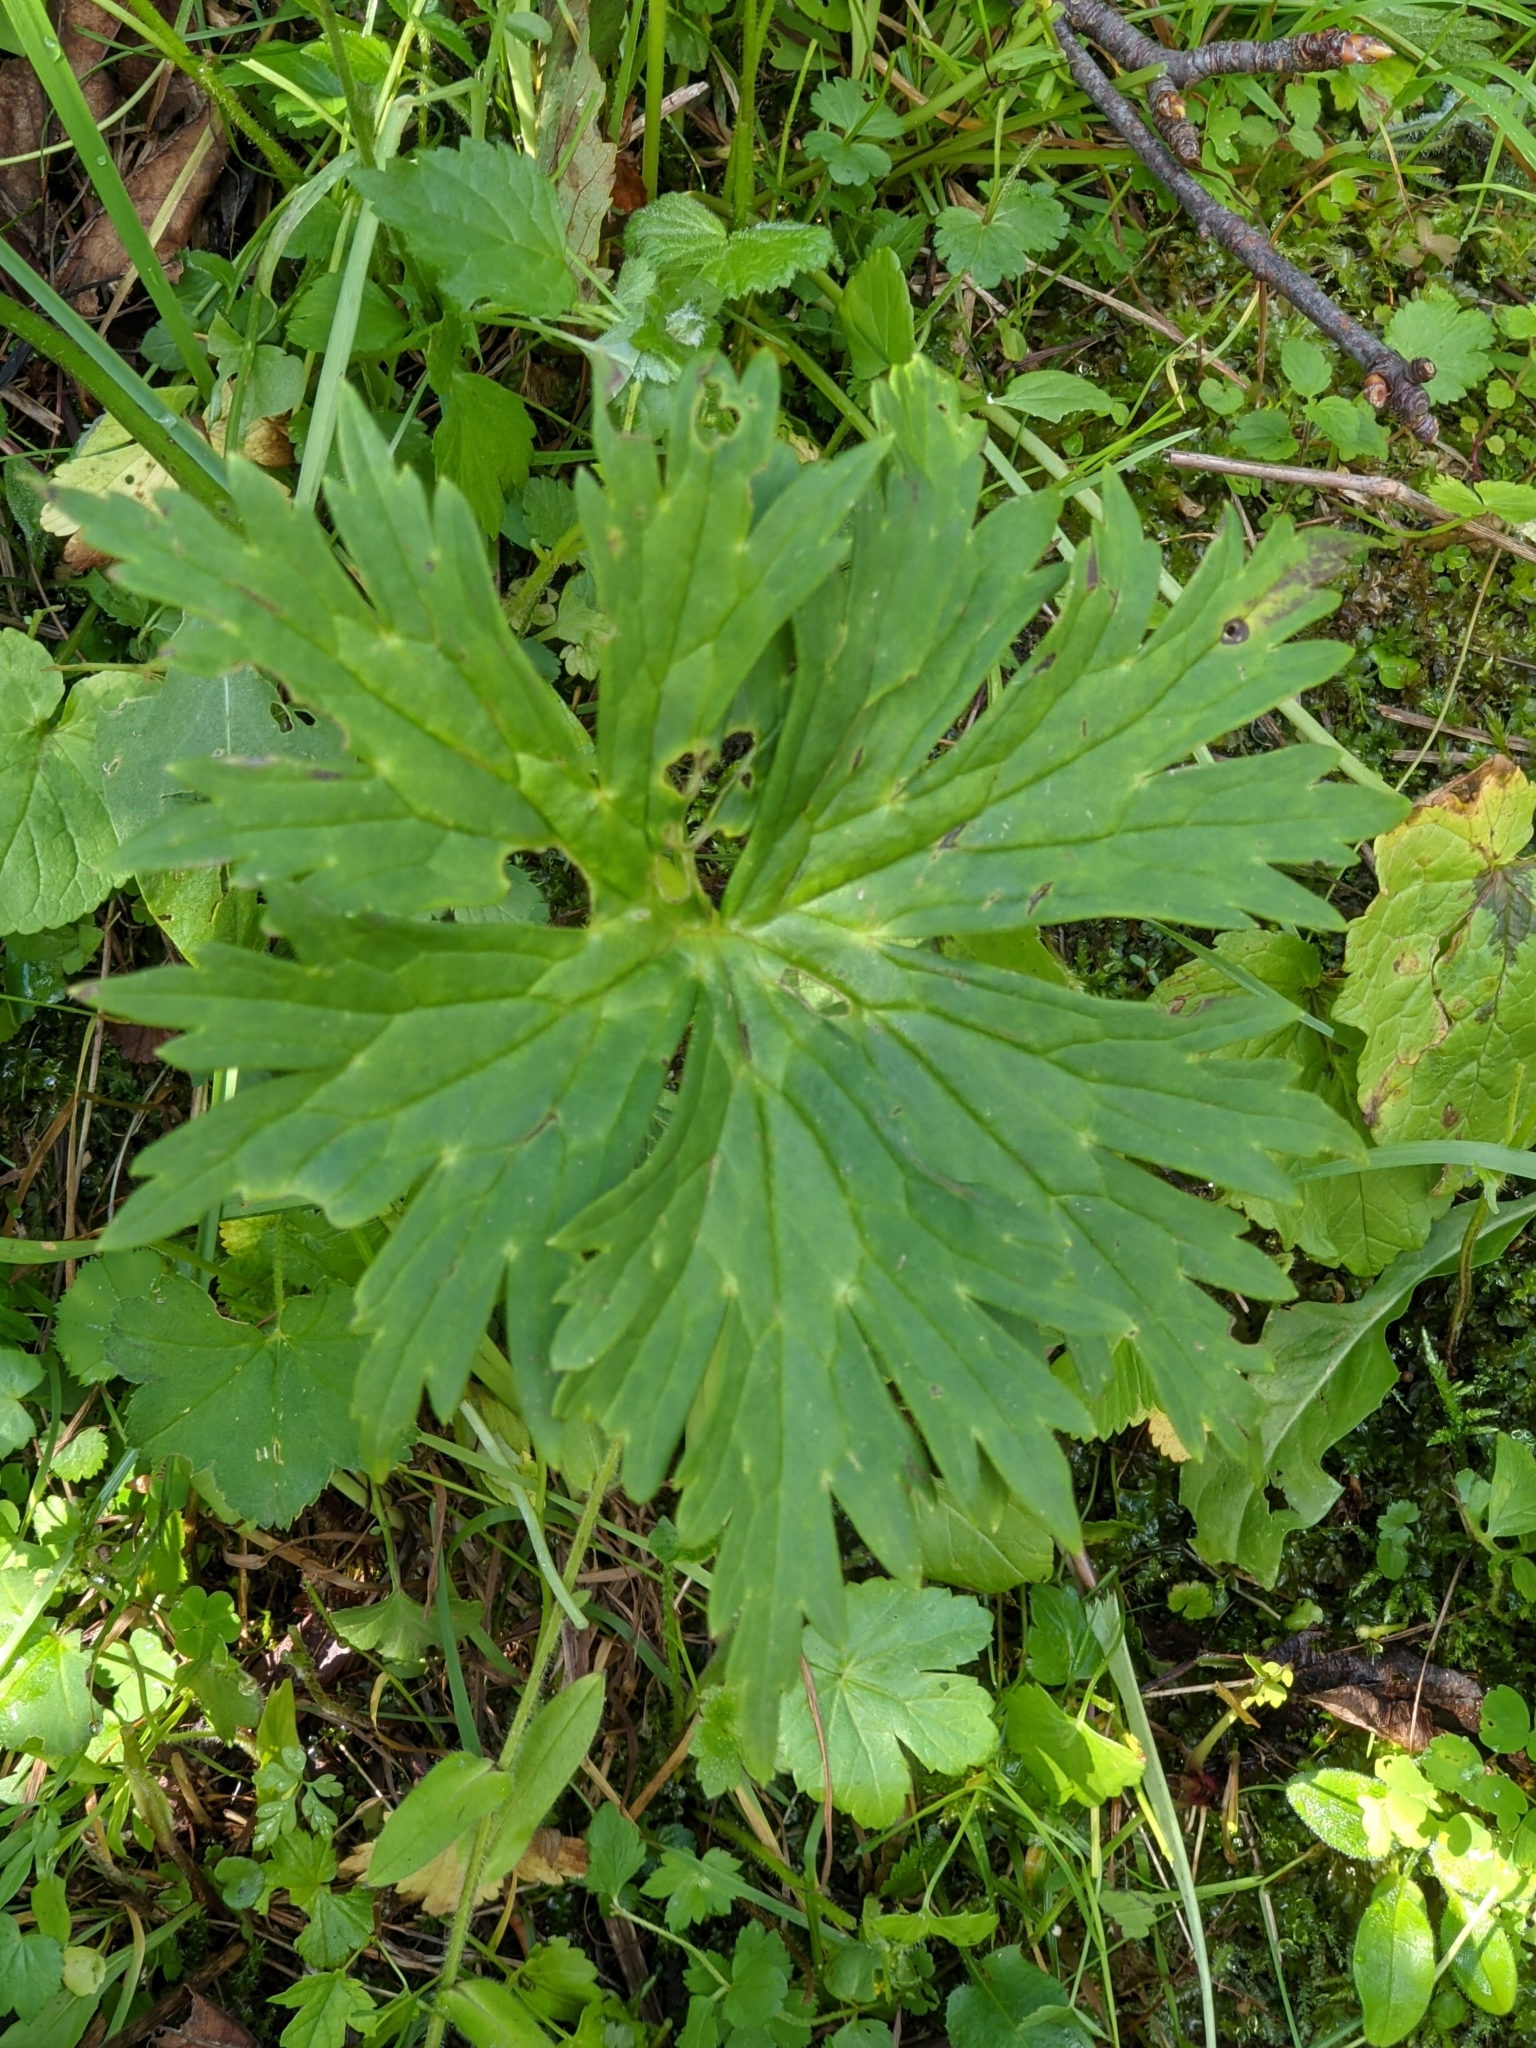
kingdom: Plantae
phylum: Tracheophyta
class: Magnoliopsida
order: Ranunculales
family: Ranunculaceae
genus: Aconitum
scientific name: Aconitum lycoctonum
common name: Wolf's-bane
